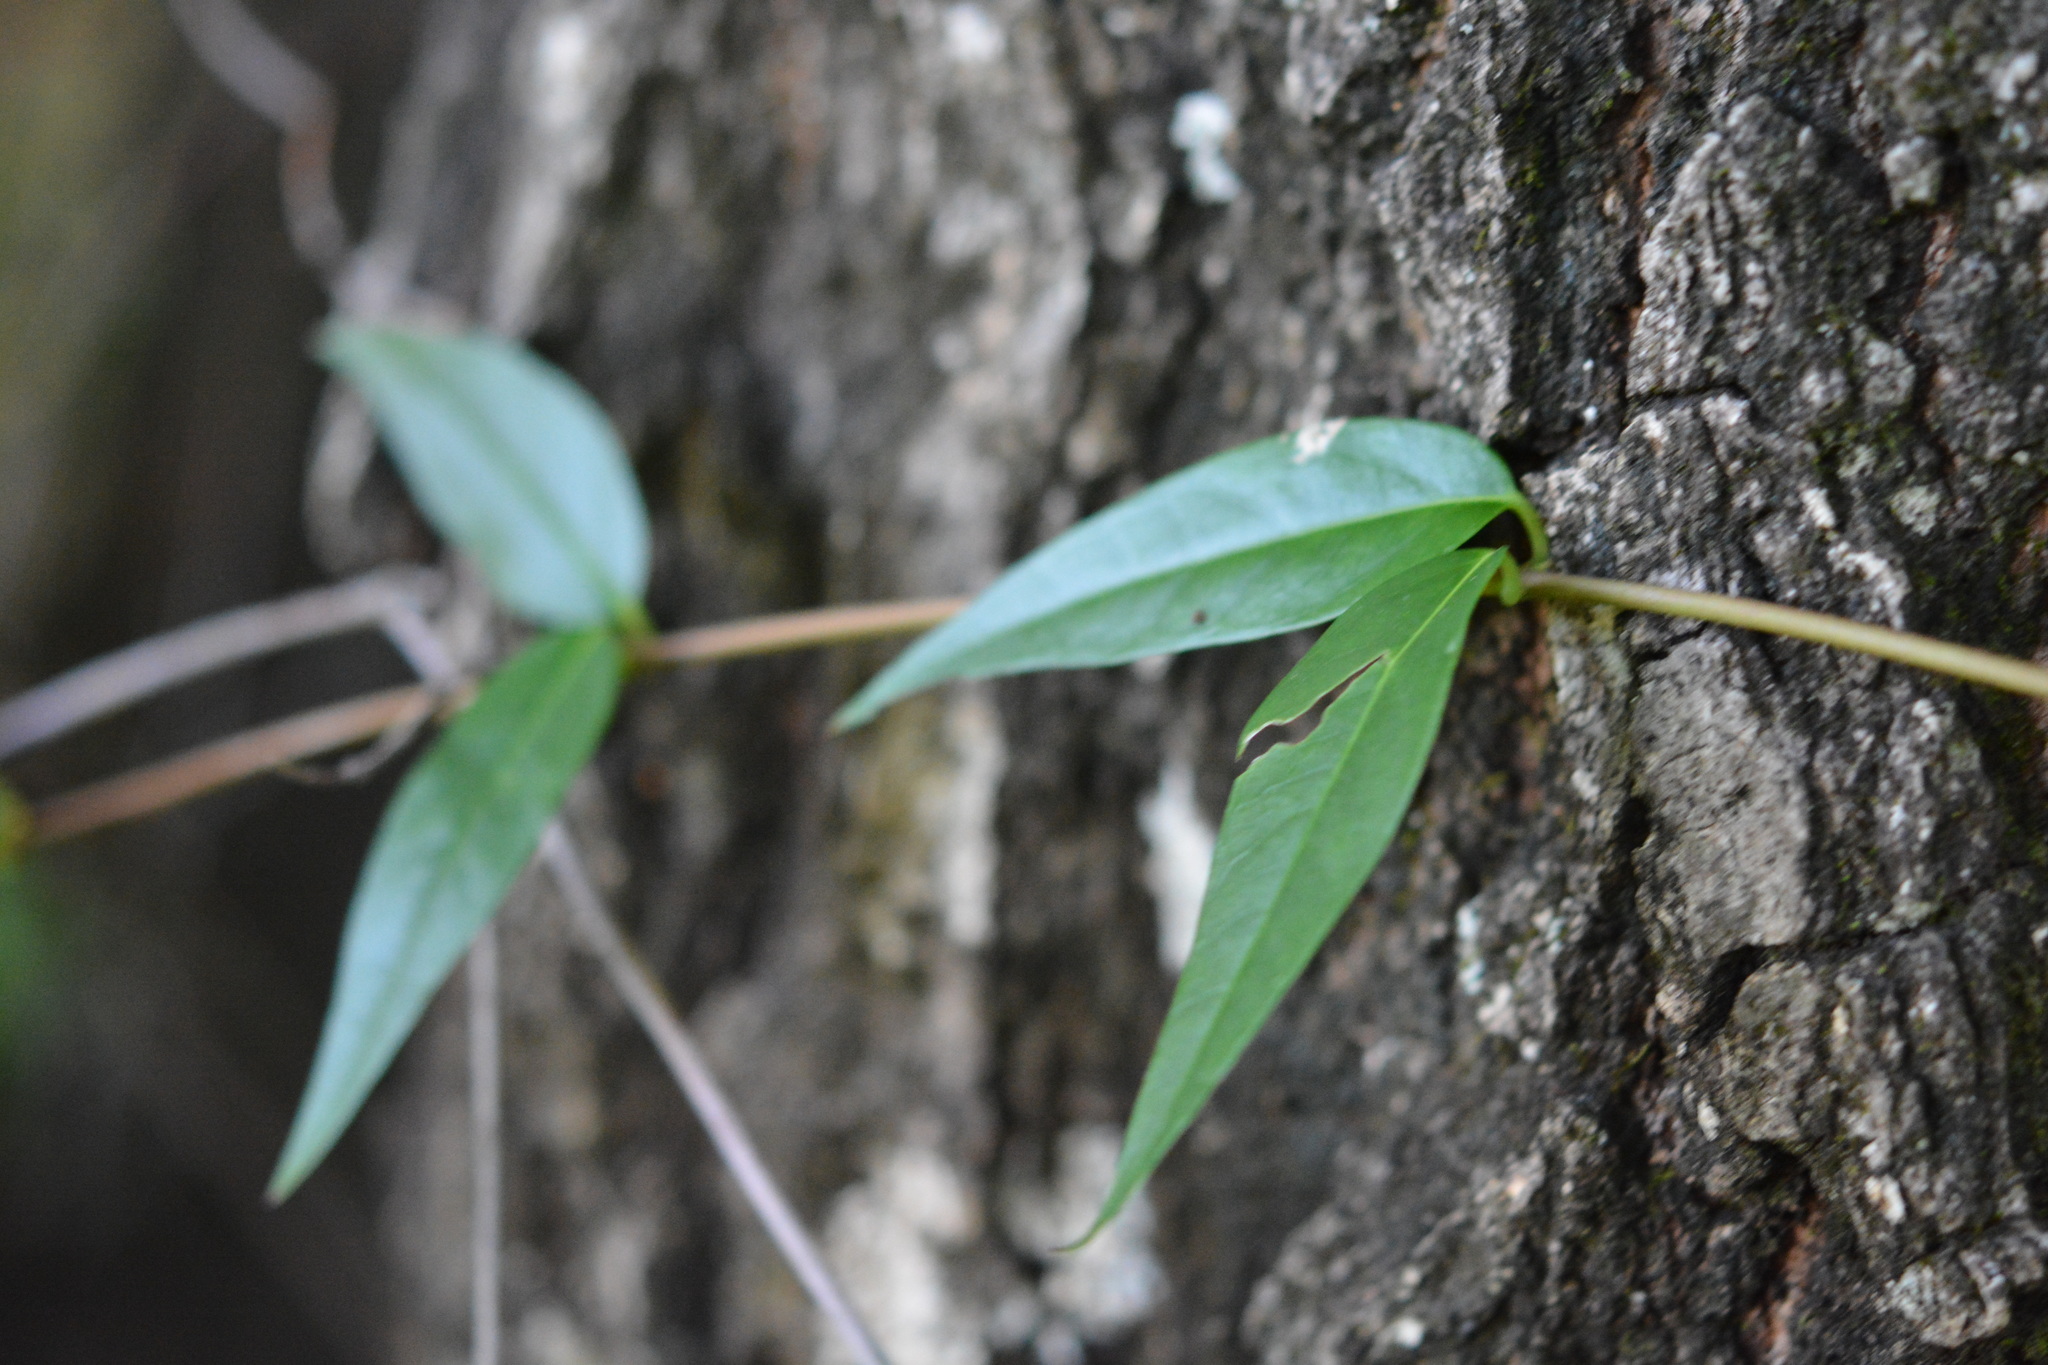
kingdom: Plantae
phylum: Tracheophyta
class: Magnoliopsida
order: Gentianales
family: Gelsemiaceae
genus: Gelsemium
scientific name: Gelsemium sempervirens
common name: Carolina-jasmine
